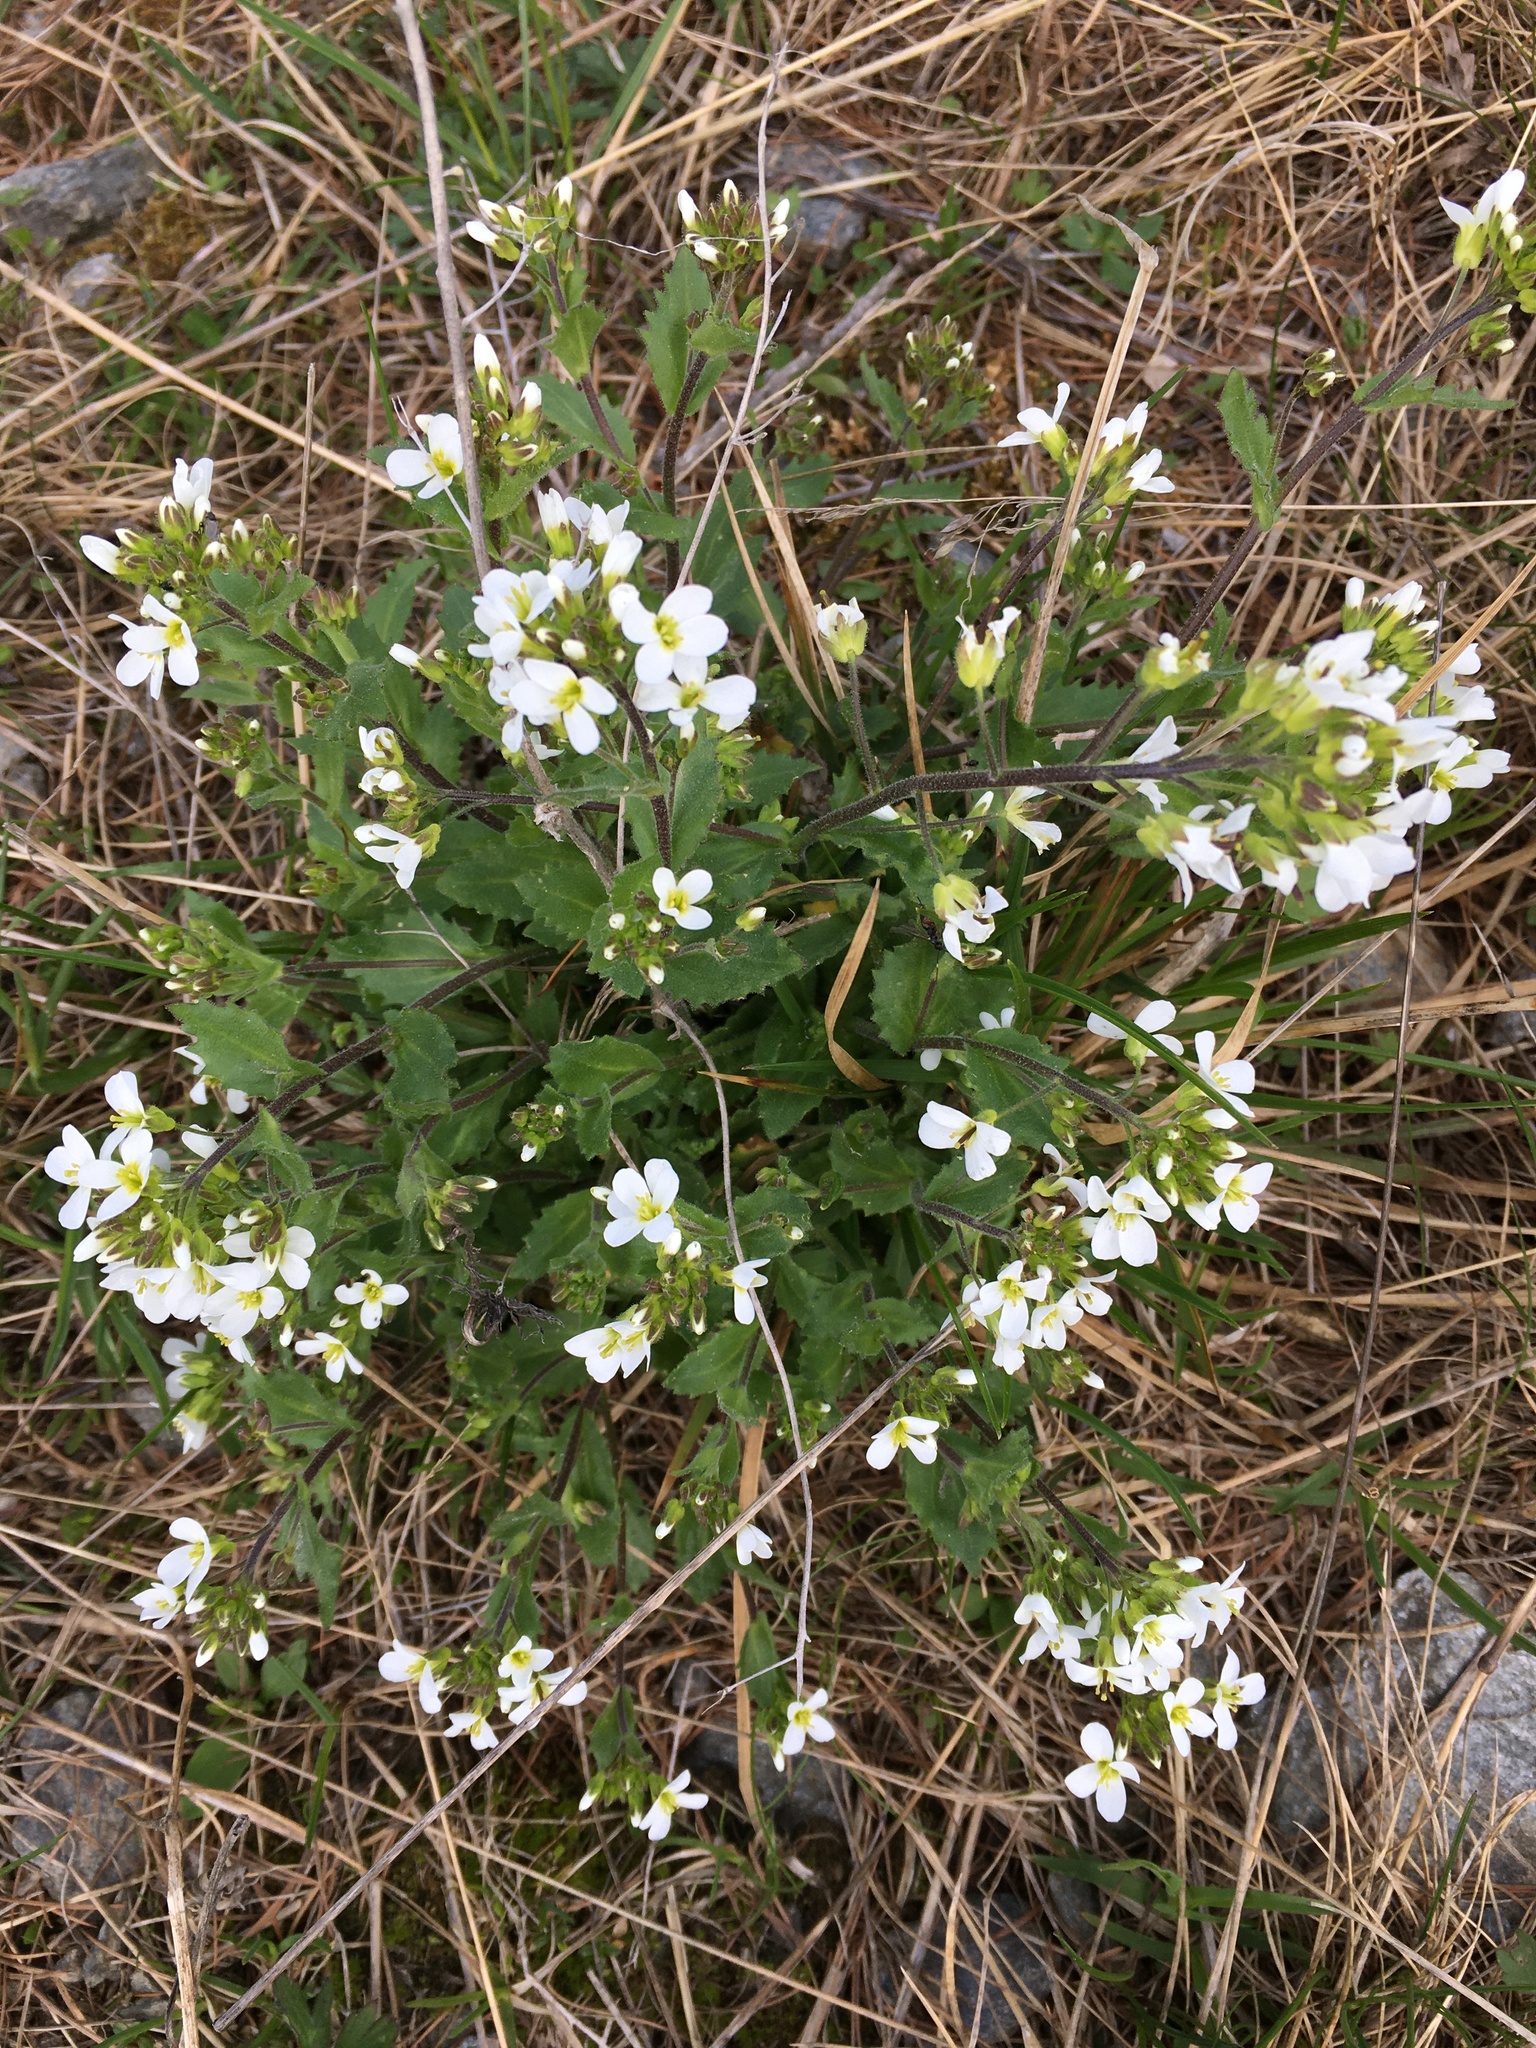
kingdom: Plantae
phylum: Tracheophyta
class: Magnoliopsida
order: Brassicales
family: Brassicaceae
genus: Arabis
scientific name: Arabis alpina
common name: Alpine rock-cress
